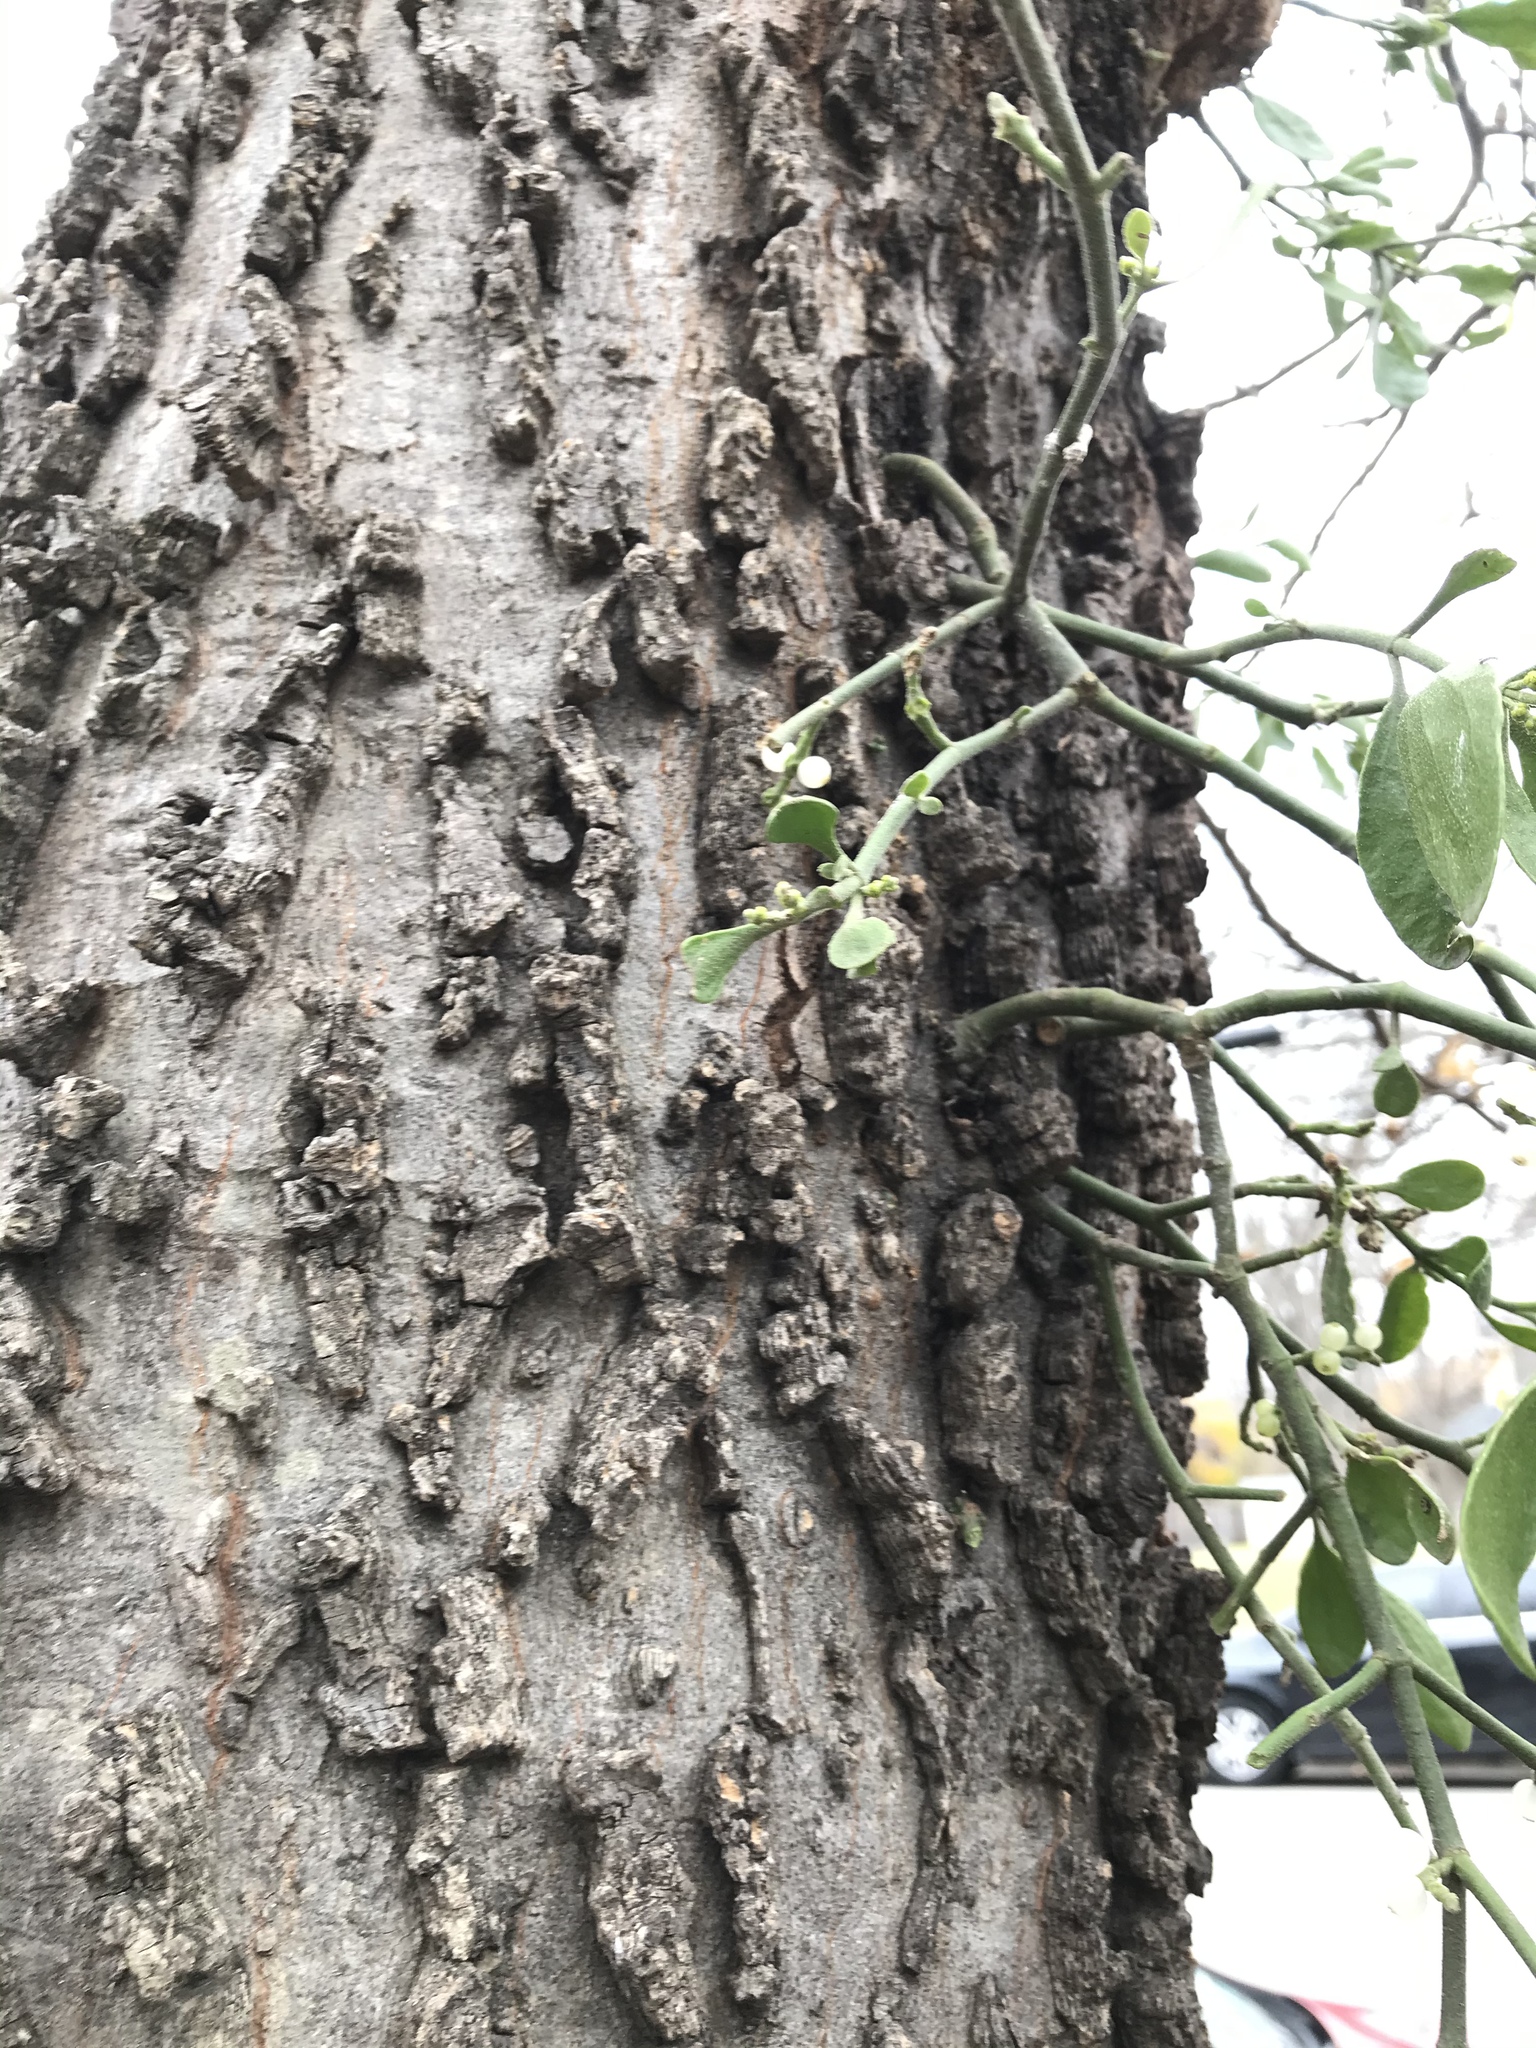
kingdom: Plantae
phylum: Tracheophyta
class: Magnoliopsida
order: Santalales
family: Viscaceae
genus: Phoradendron
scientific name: Phoradendron leucarpum
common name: Pacific mistletoe
